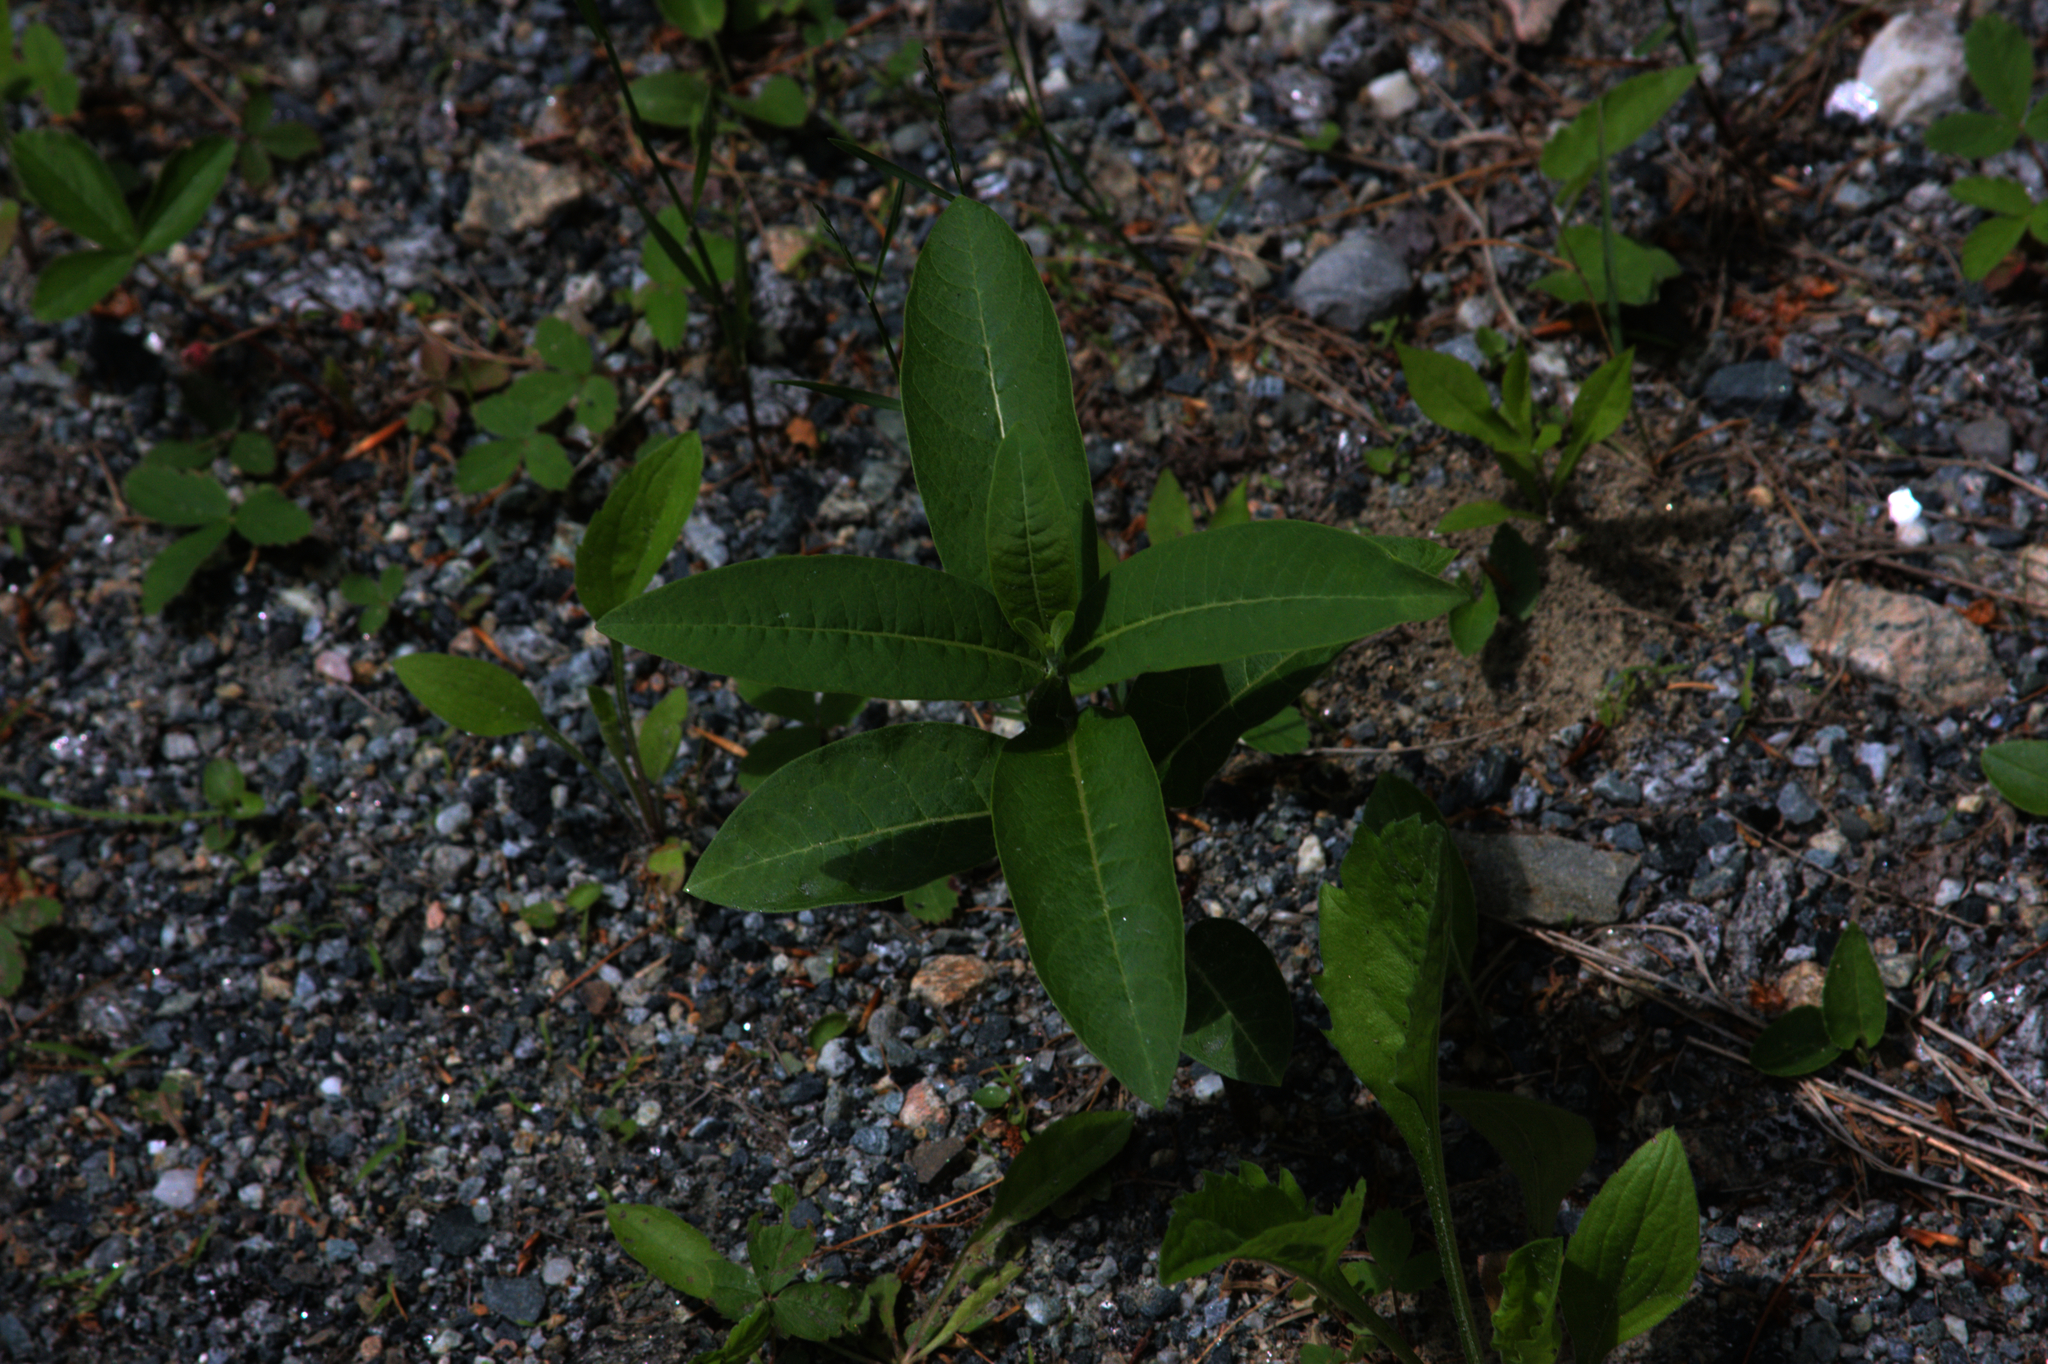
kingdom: Plantae
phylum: Tracheophyta
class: Magnoliopsida
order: Gentianales
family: Apocynaceae
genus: Asclepias
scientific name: Asclepias syriaca
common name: Common milkweed
